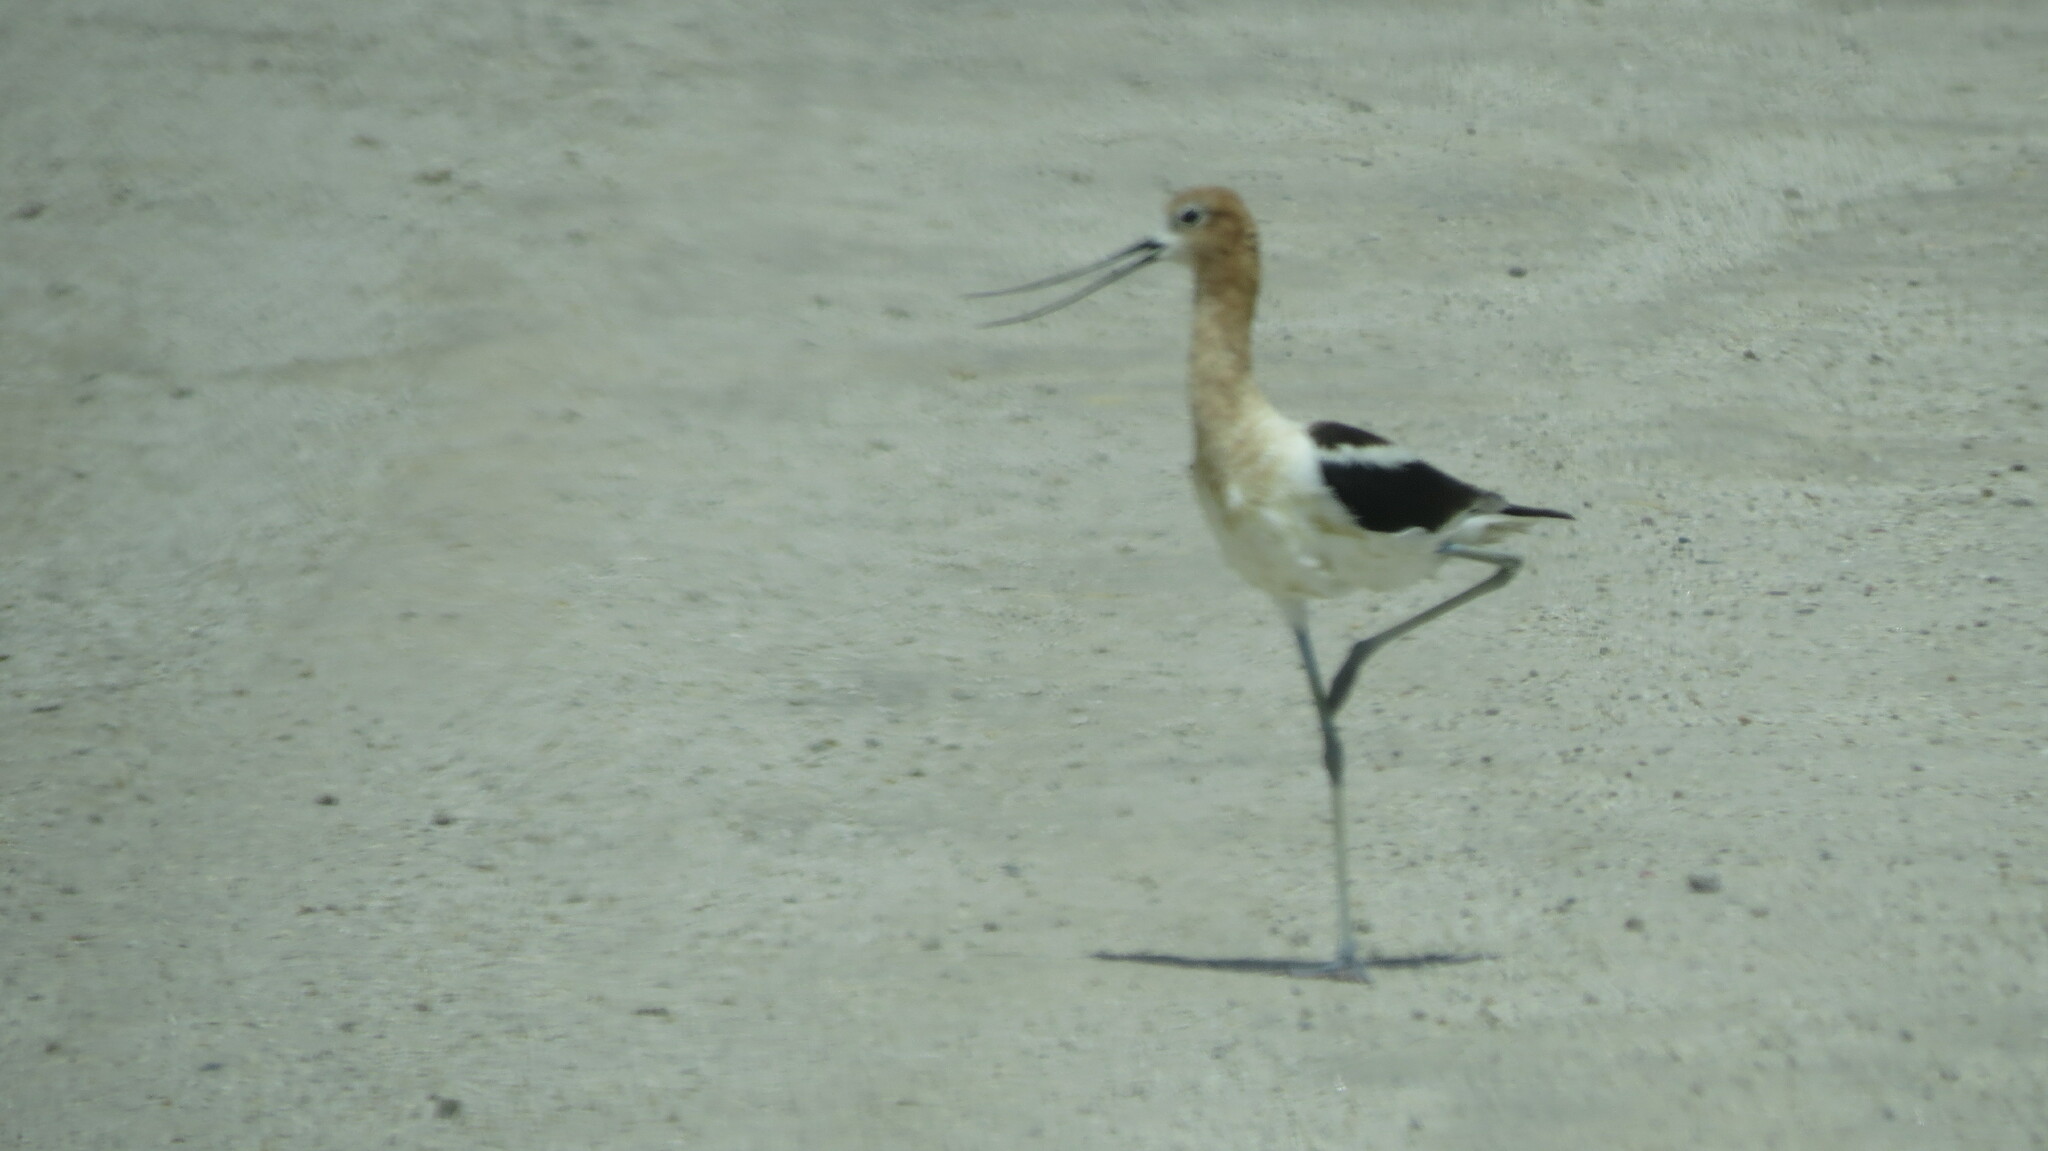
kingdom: Animalia
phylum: Chordata
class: Aves
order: Charadriiformes
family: Recurvirostridae
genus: Recurvirostra
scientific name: Recurvirostra americana
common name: American avocet
